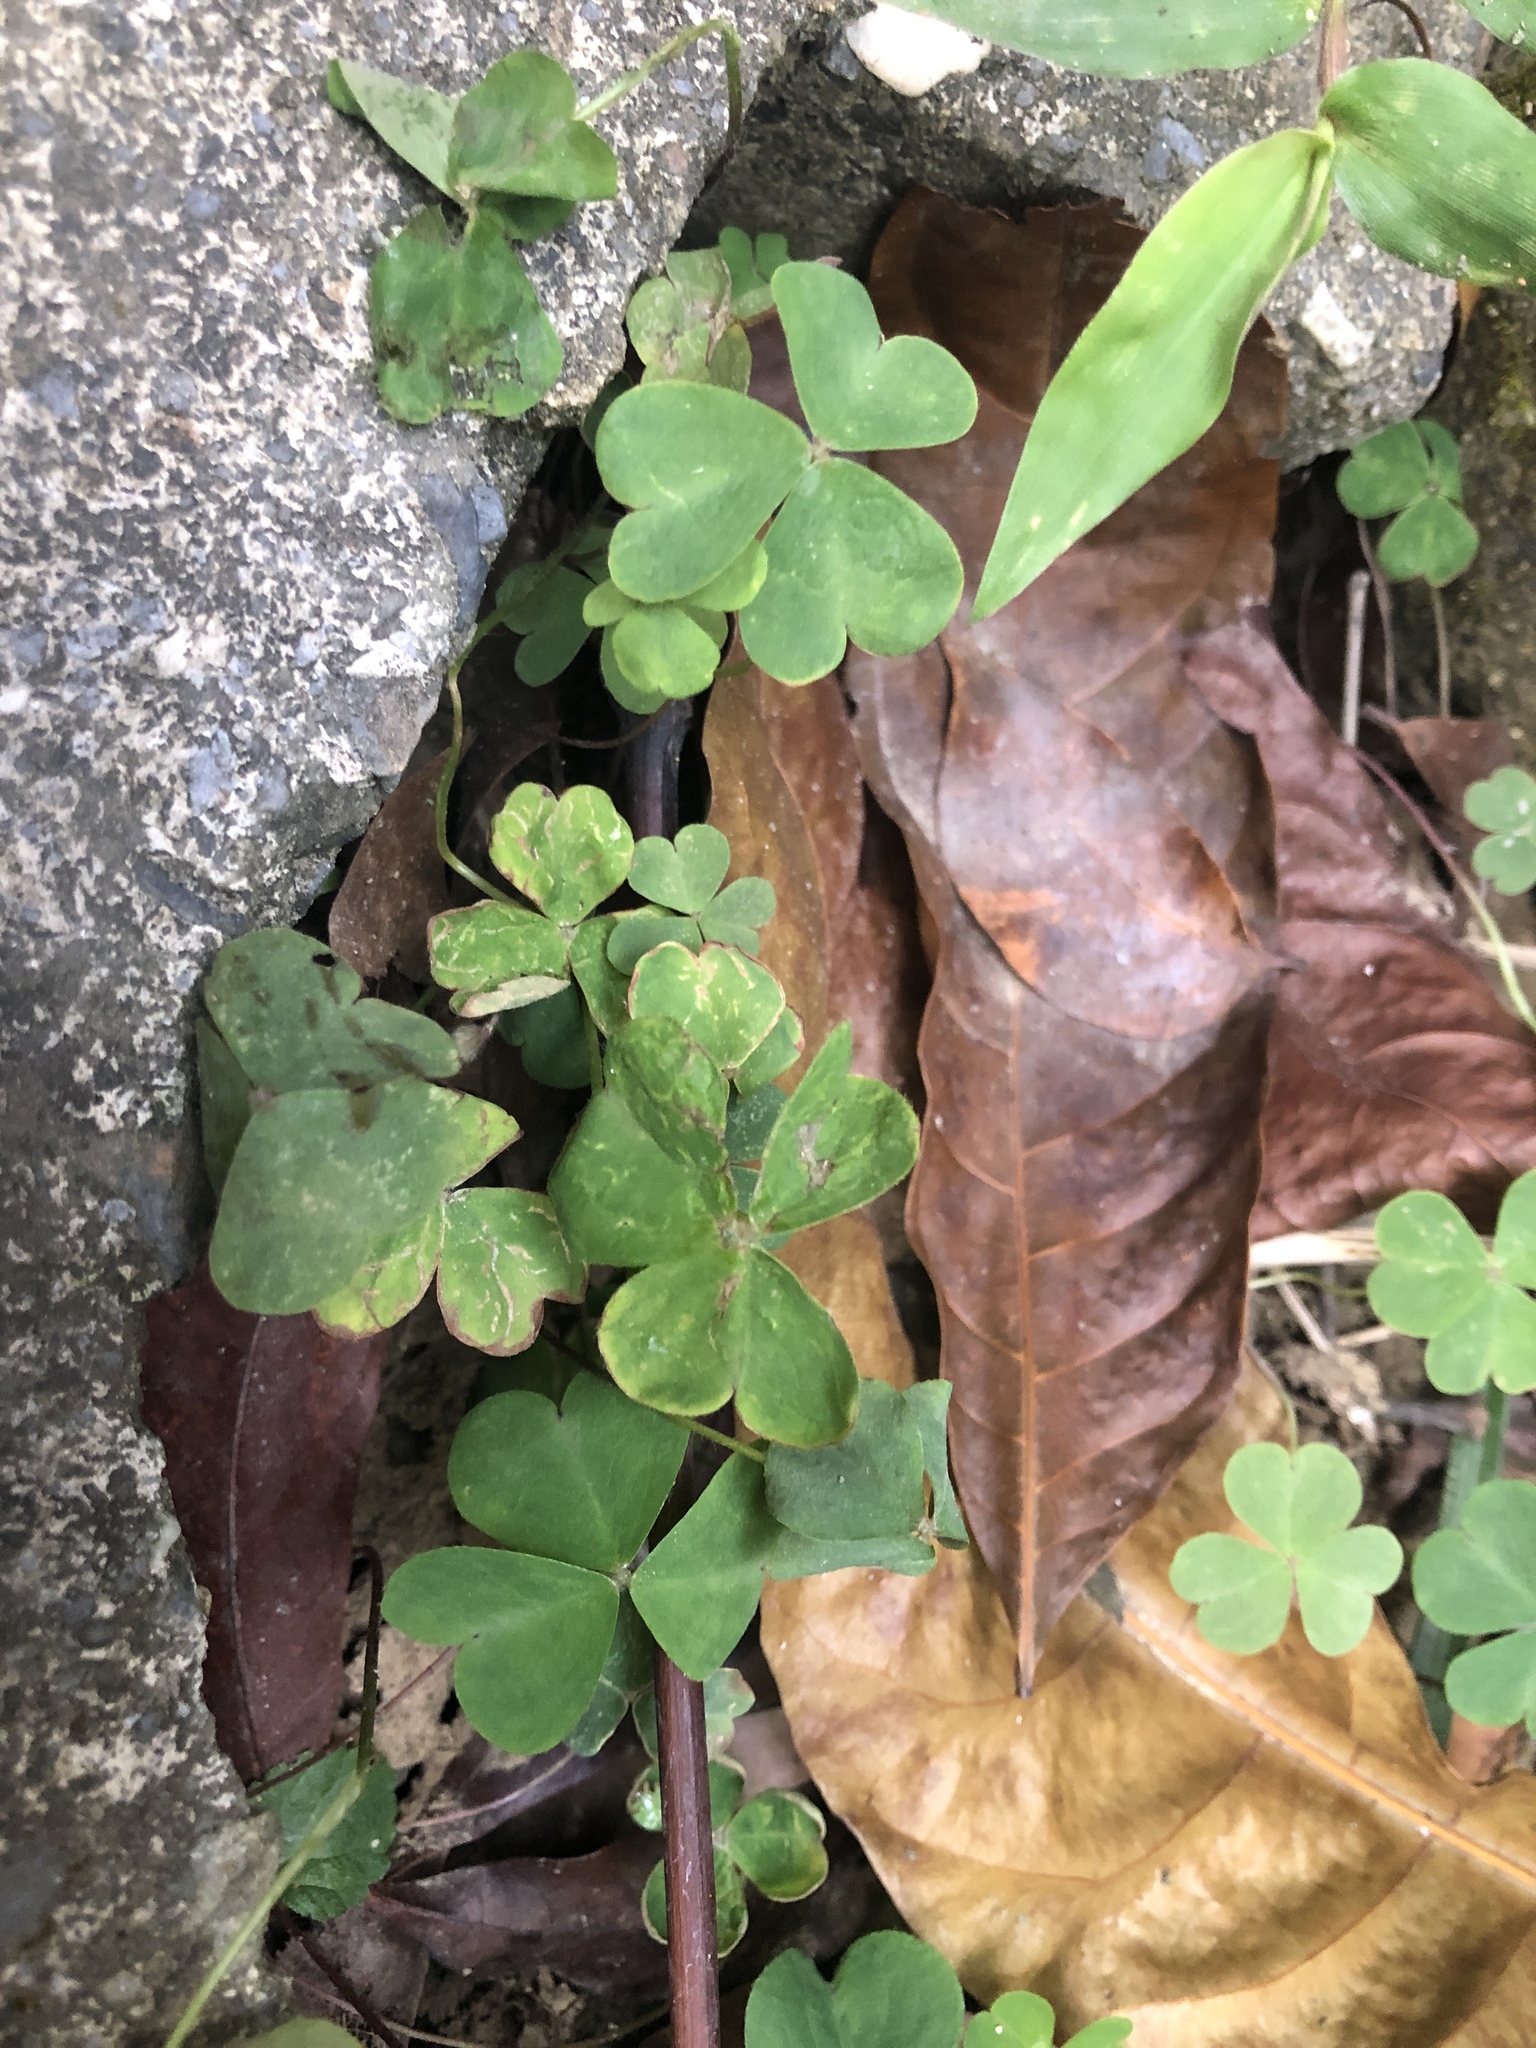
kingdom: Plantae
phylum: Tracheophyta
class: Magnoliopsida
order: Oxalidales
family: Oxalidaceae
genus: Oxalis
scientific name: Oxalis corniculata
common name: Procumbent yellow-sorrel
